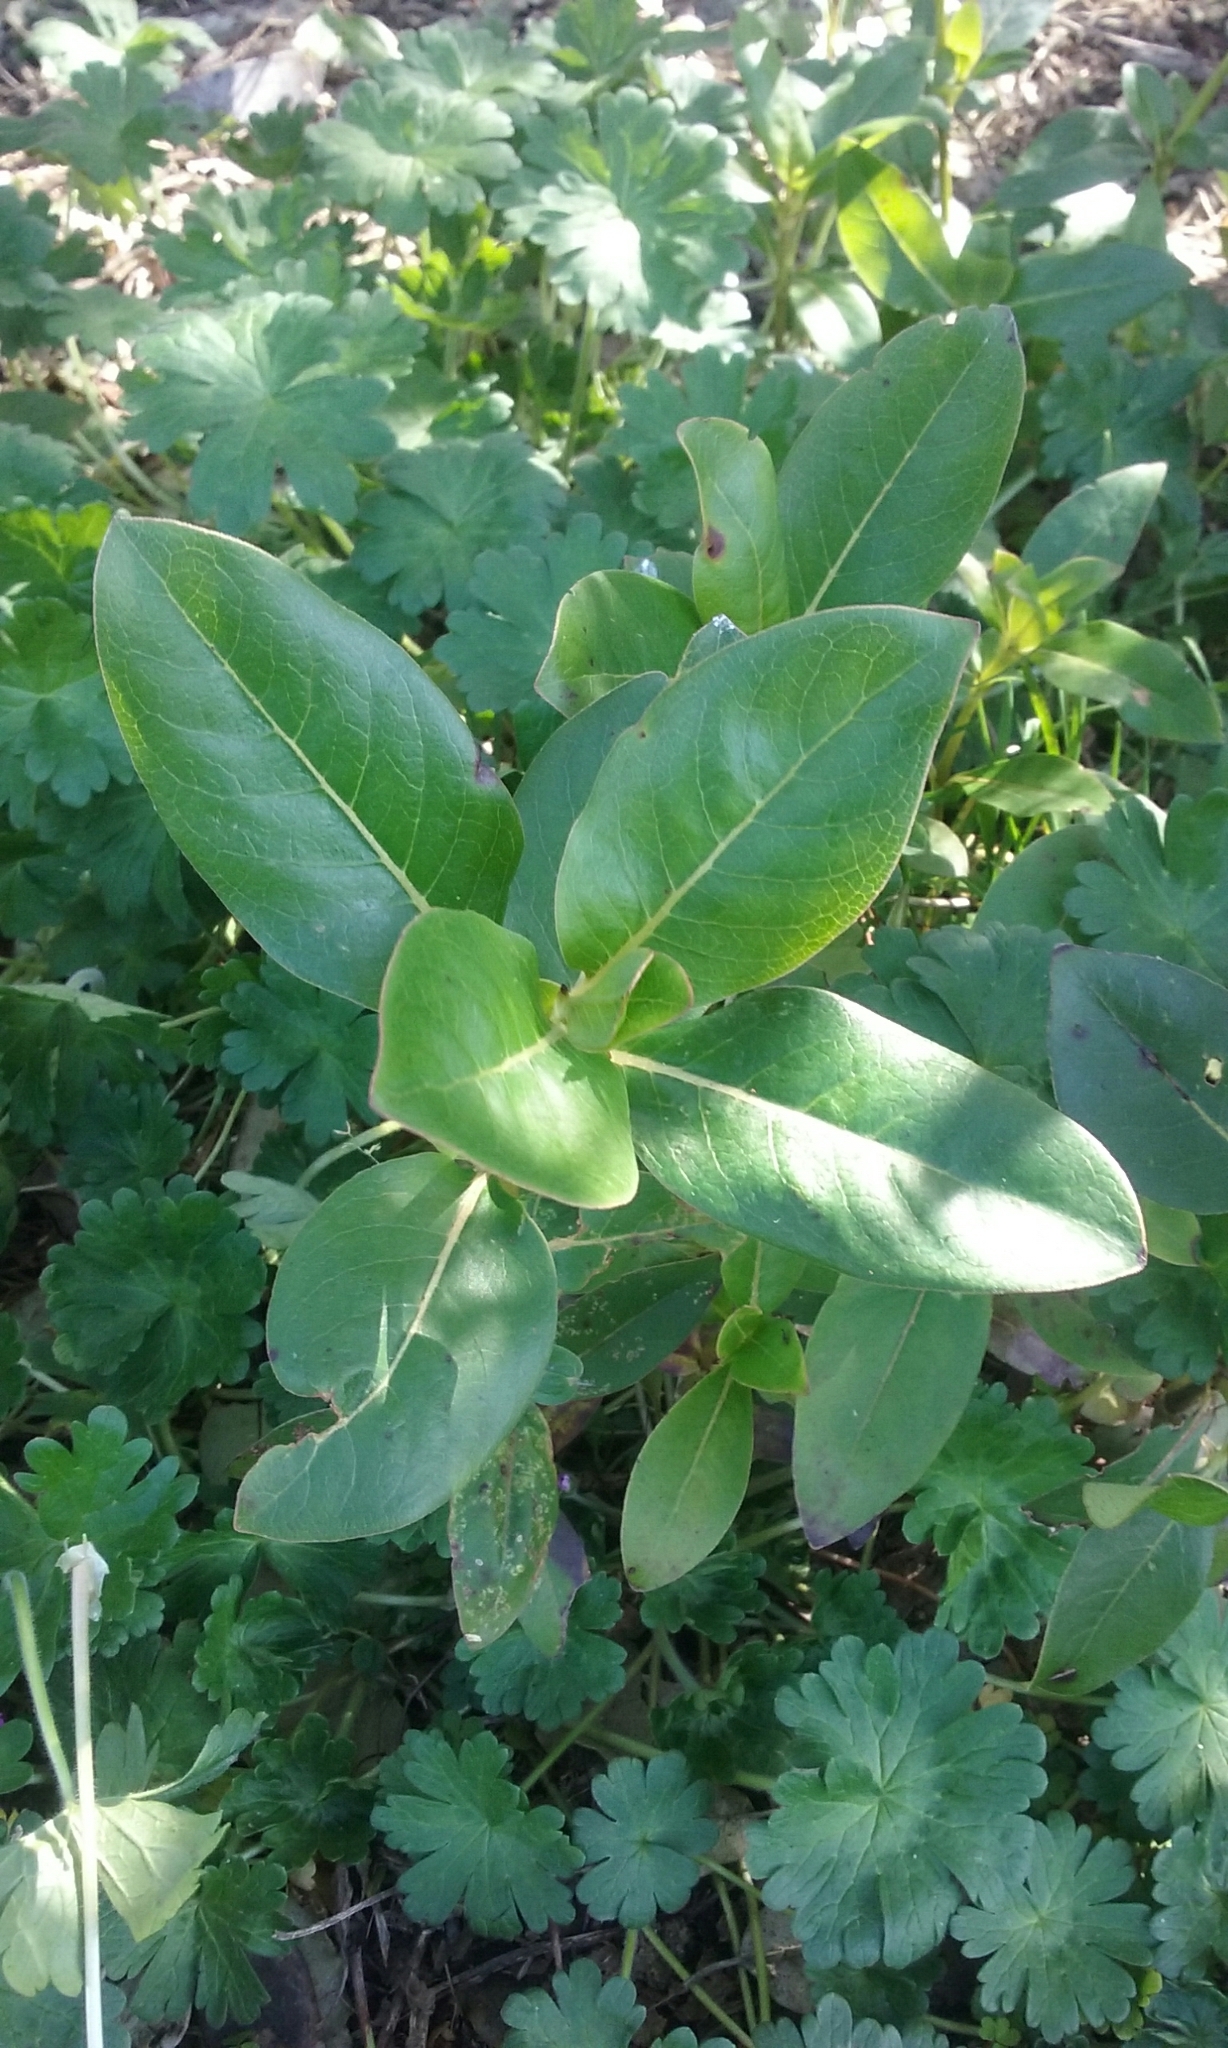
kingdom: Plantae
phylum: Tracheophyta
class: Magnoliopsida
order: Gentianales
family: Rubiaceae
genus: Coprosma
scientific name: Coprosma robusta
